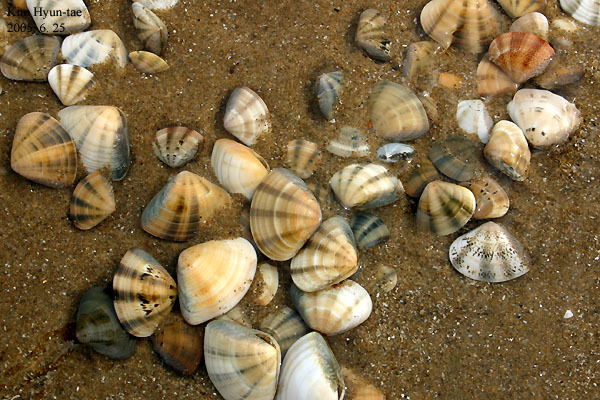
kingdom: Animalia
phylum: Mollusca
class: Bivalvia
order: Venerida
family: Veneridae
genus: Macridiscus
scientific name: Macridiscus multifarius
